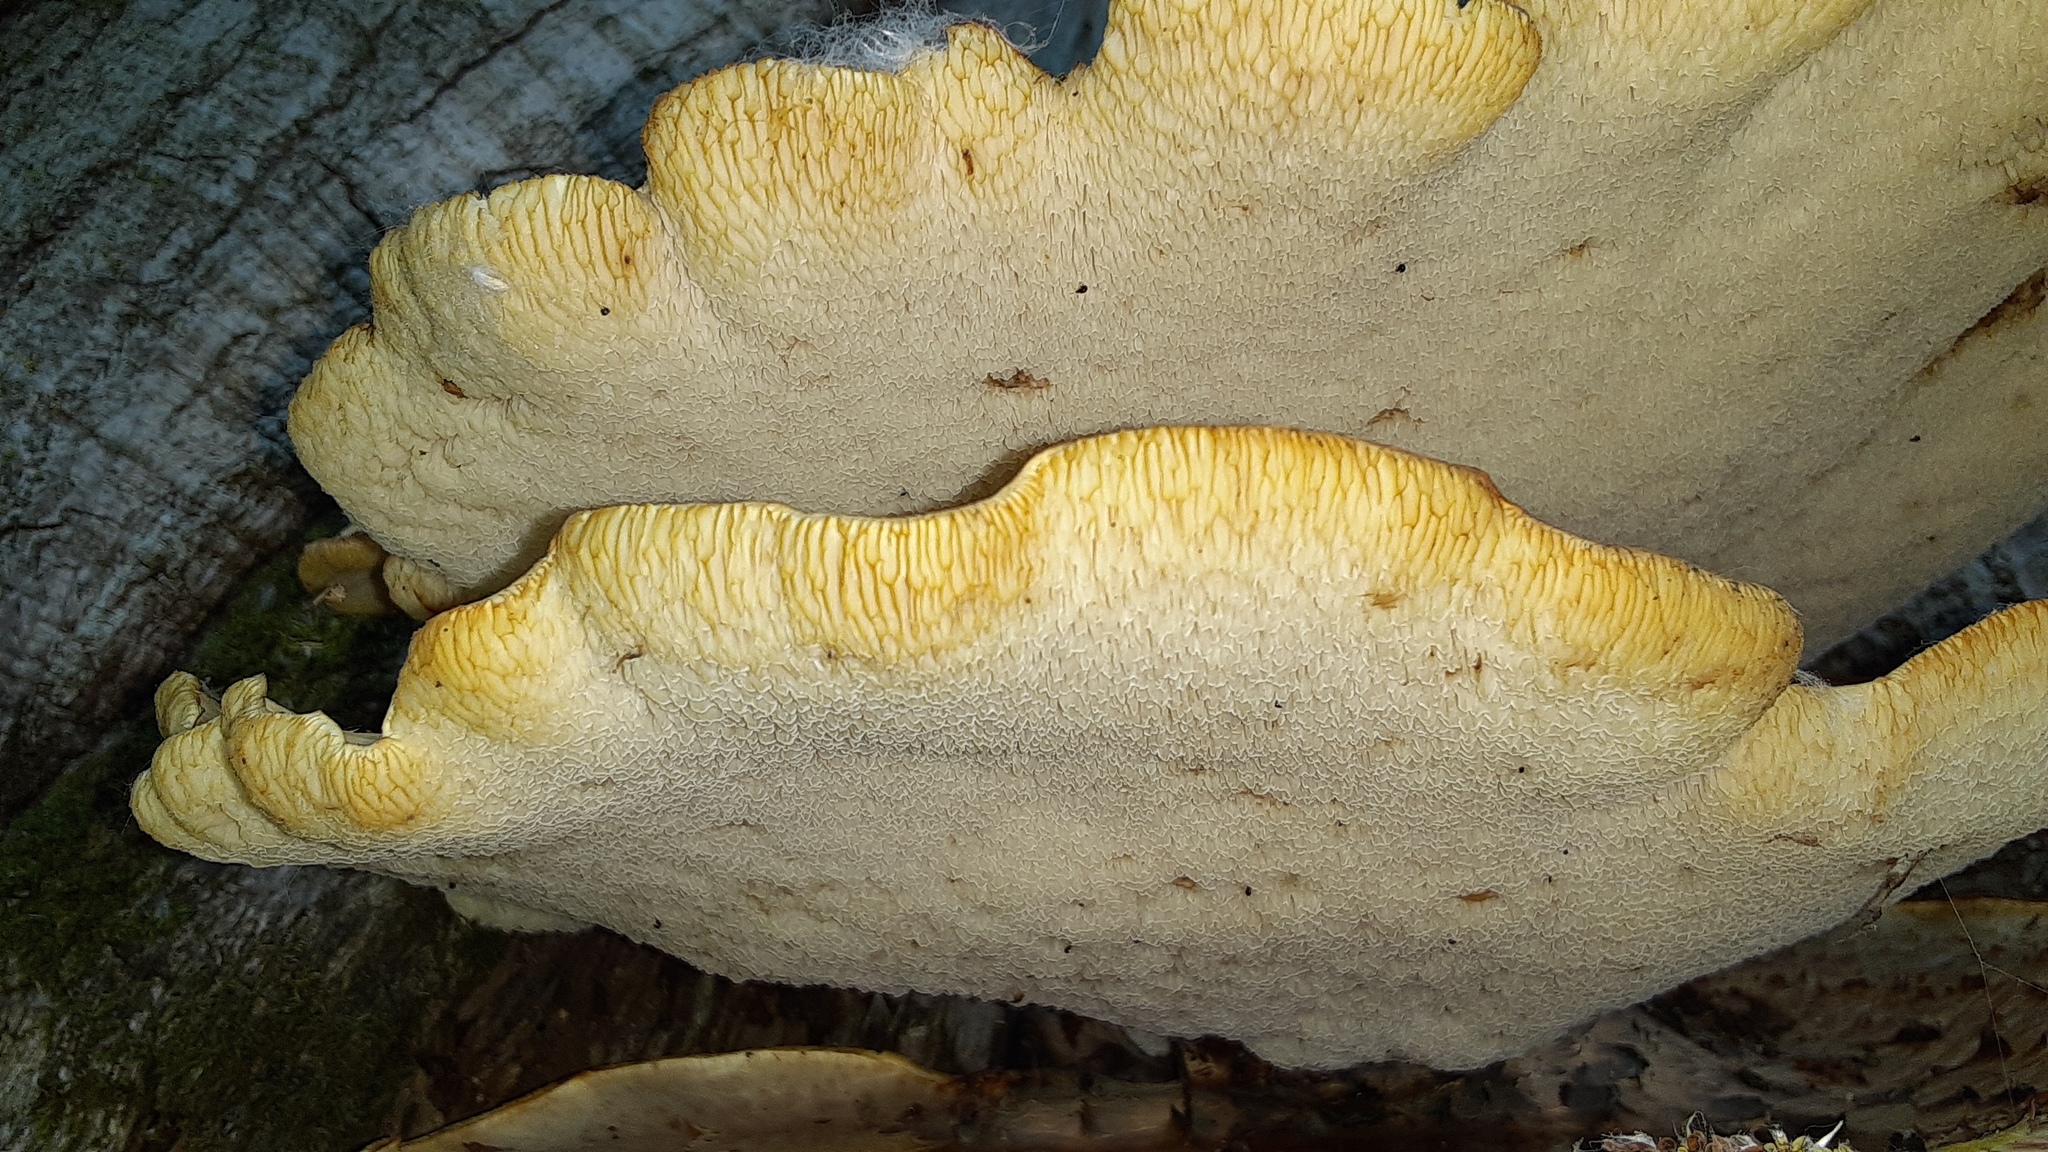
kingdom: Fungi
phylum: Basidiomycota
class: Agaricomycetes
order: Polyporales
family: Polyporaceae
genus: Cerioporus
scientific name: Cerioporus squamosus
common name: Dryad's saddle
